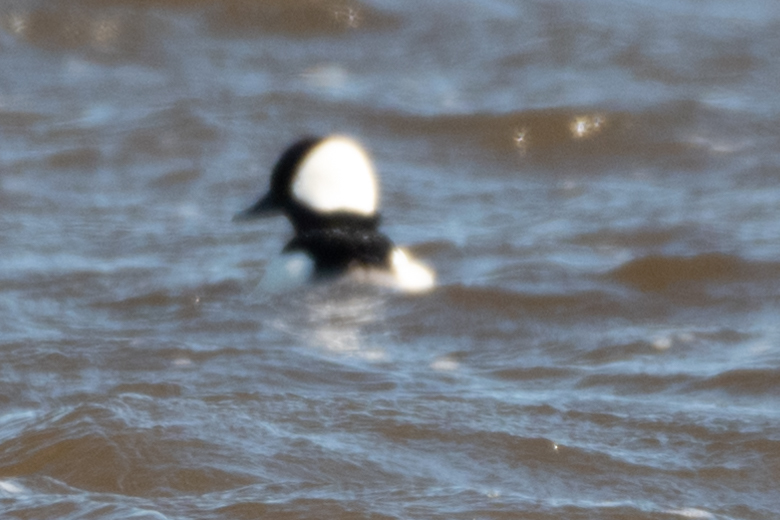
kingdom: Animalia
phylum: Chordata
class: Aves
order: Anseriformes
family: Anatidae
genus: Bucephala
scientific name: Bucephala albeola
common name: Bufflehead
